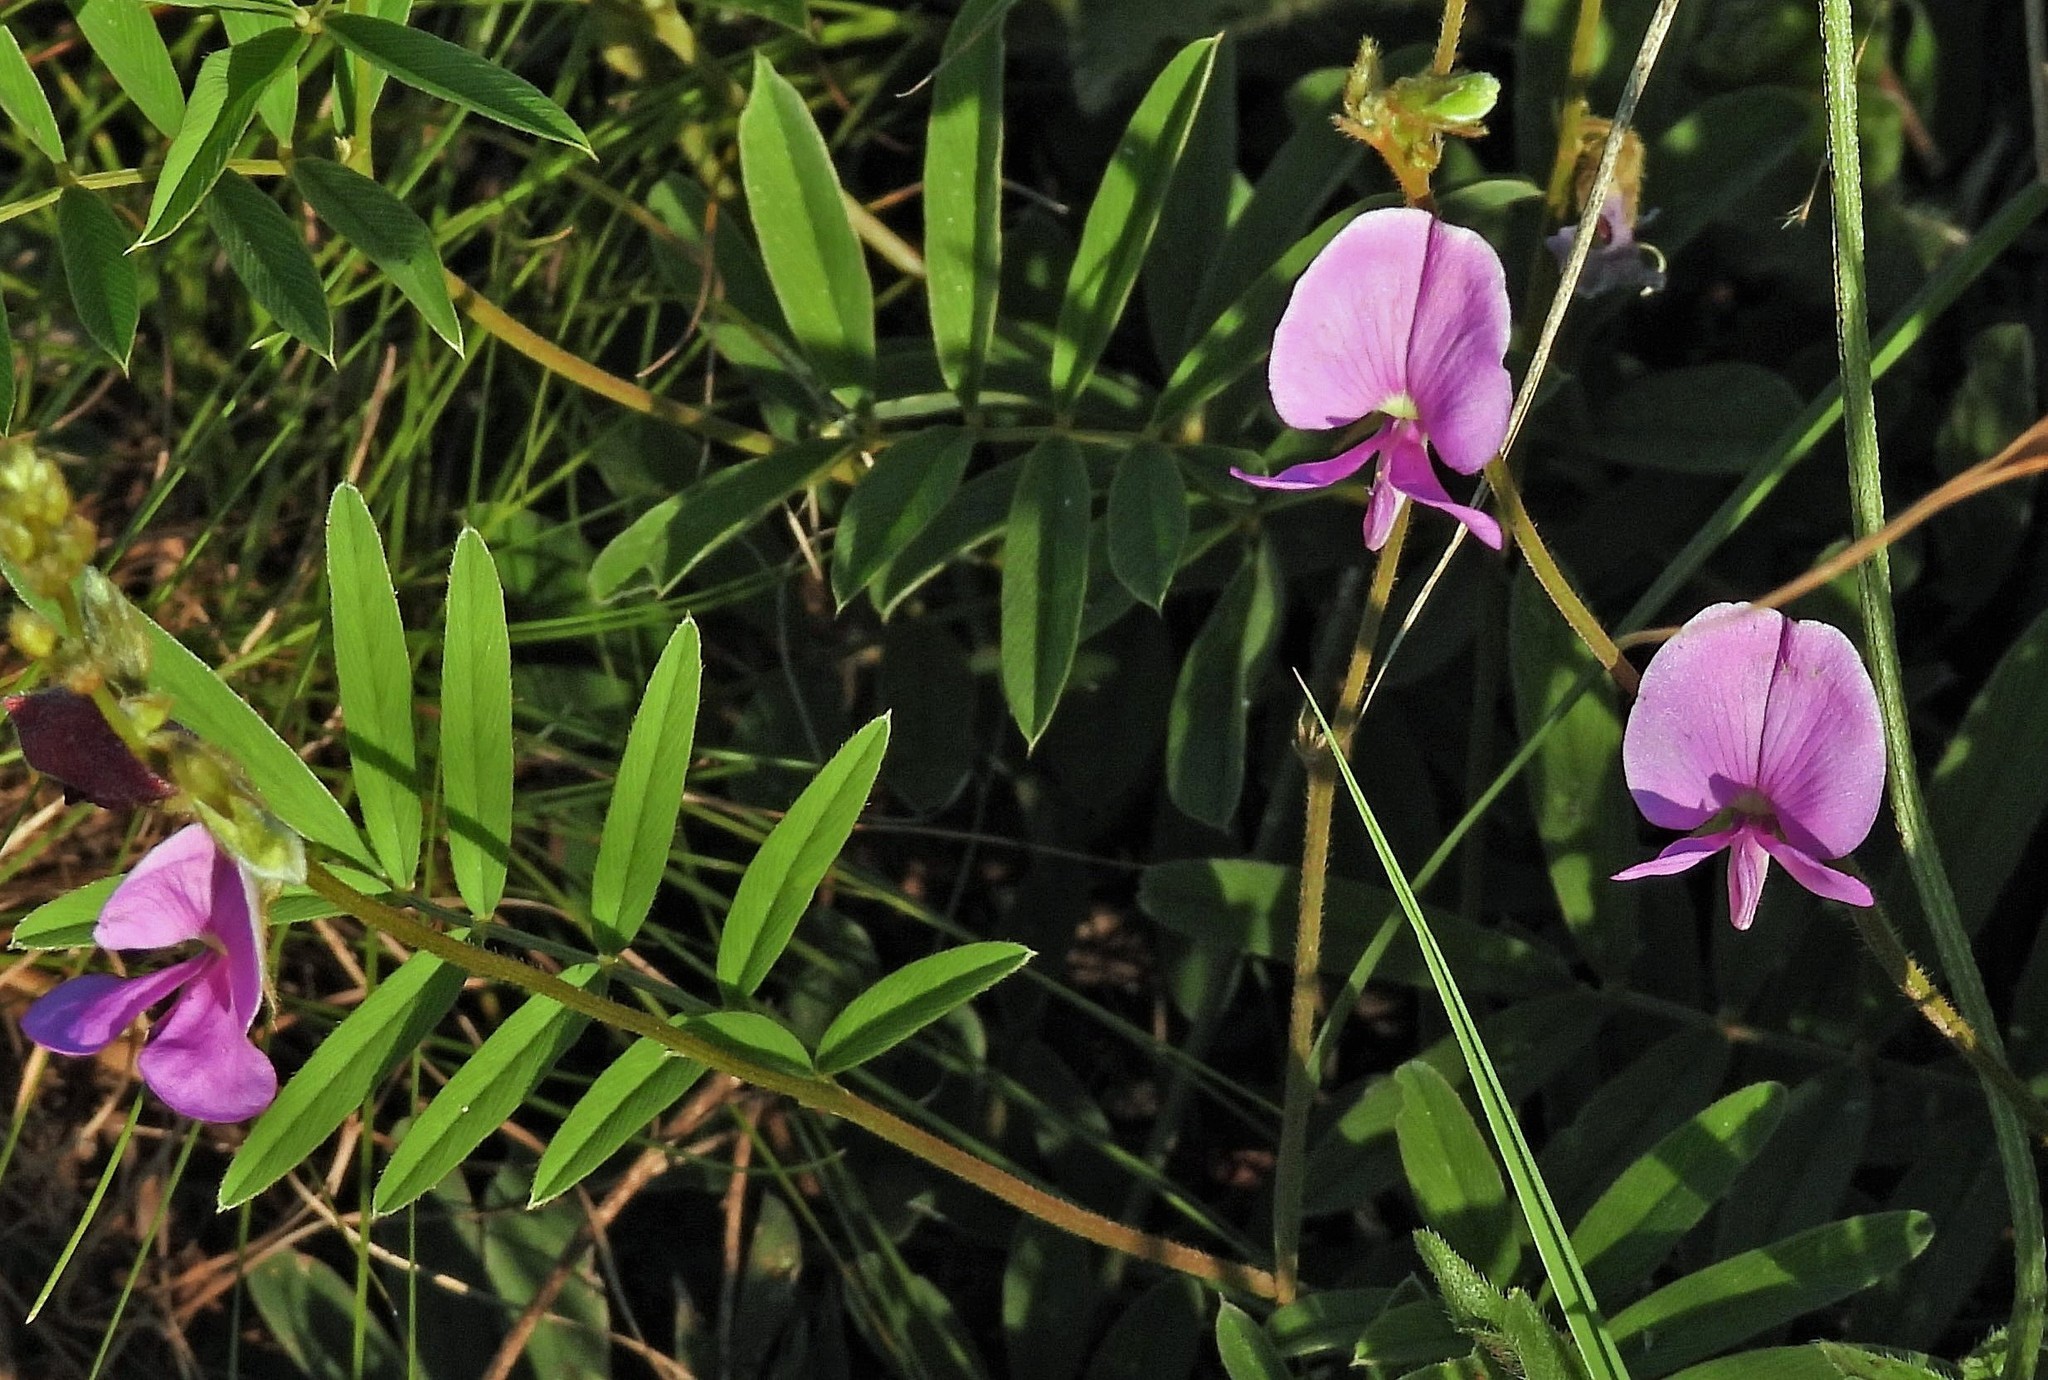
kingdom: Plantae
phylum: Tracheophyta
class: Magnoliopsida
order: Fabales
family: Fabaceae
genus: Tephrosia
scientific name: Tephrosia chaquenha
